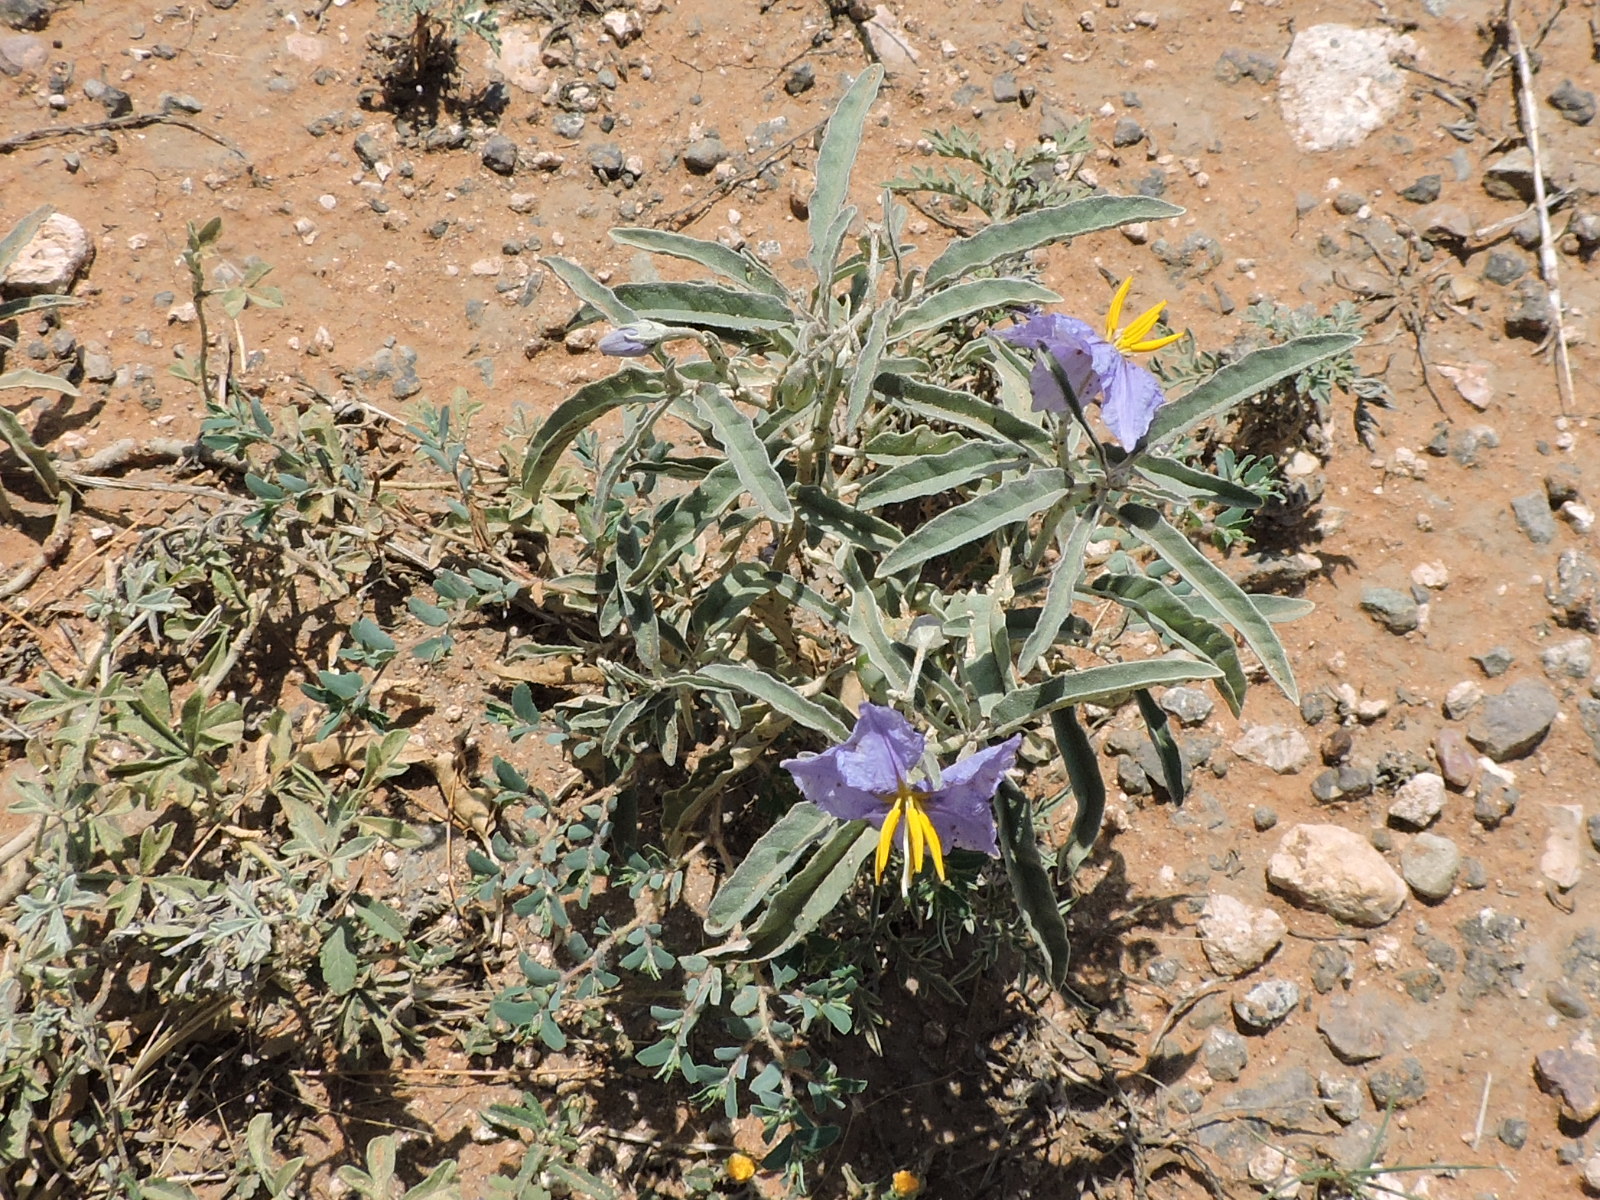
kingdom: Plantae
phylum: Tracheophyta
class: Magnoliopsida
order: Solanales
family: Solanaceae
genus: Solanum
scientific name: Solanum elaeagnifolium
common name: Silverleaf nightshade
